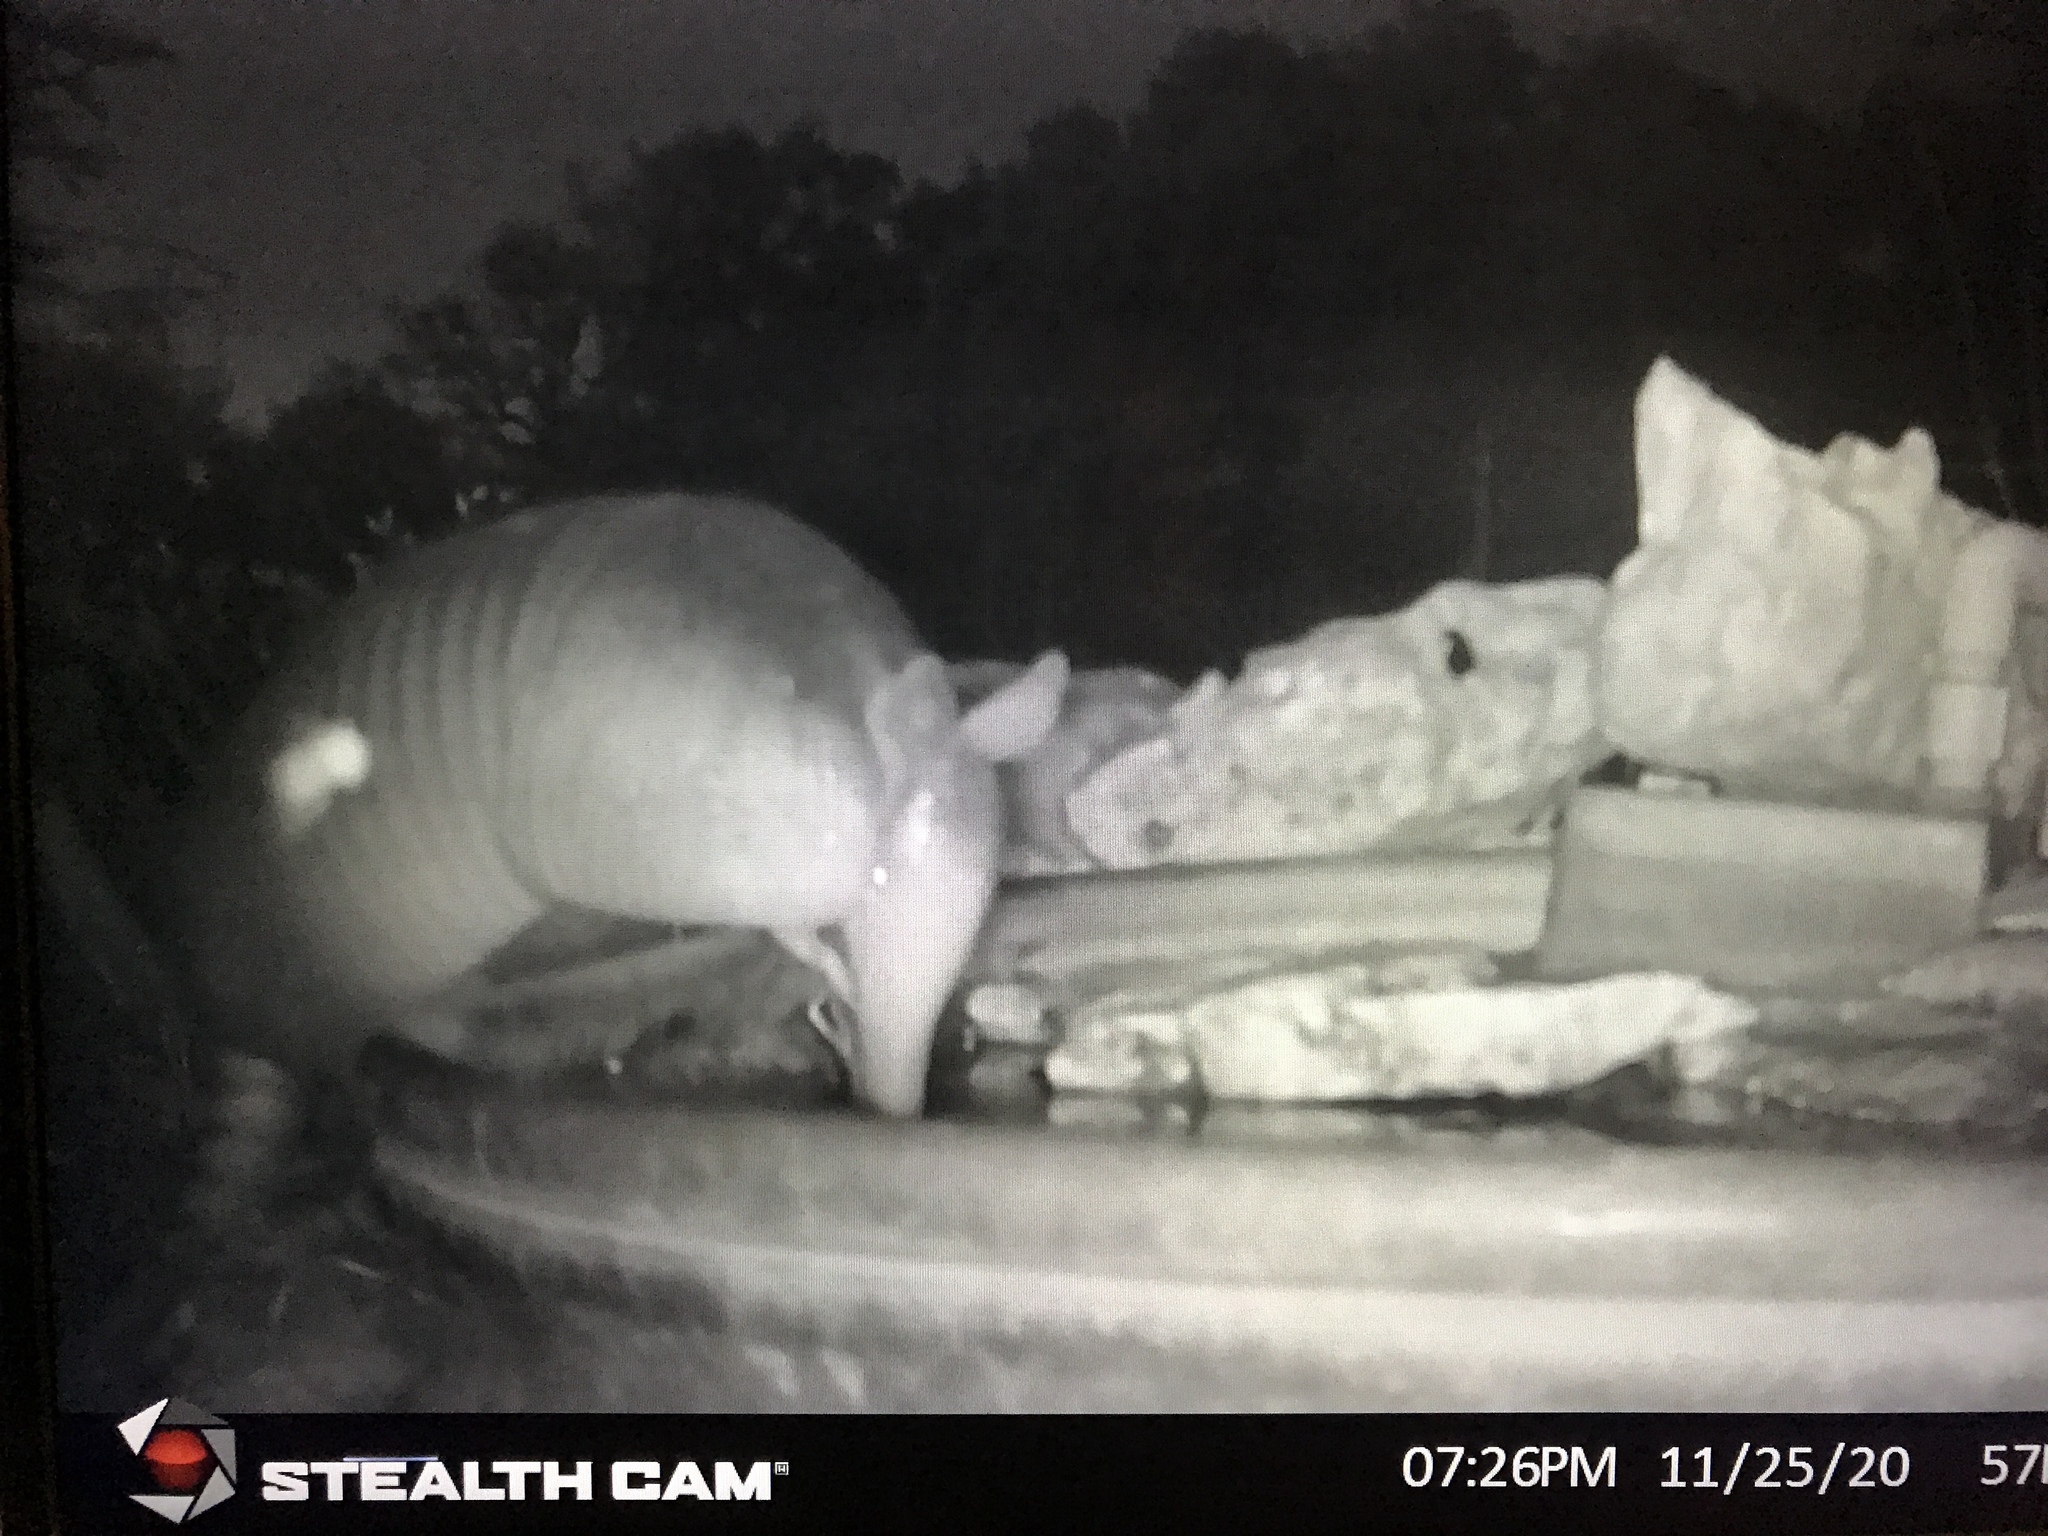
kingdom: Animalia
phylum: Chordata
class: Mammalia
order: Cingulata
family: Dasypodidae
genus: Dasypus
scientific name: Dasypus novemcinctus
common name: Nine-banded armadillo
